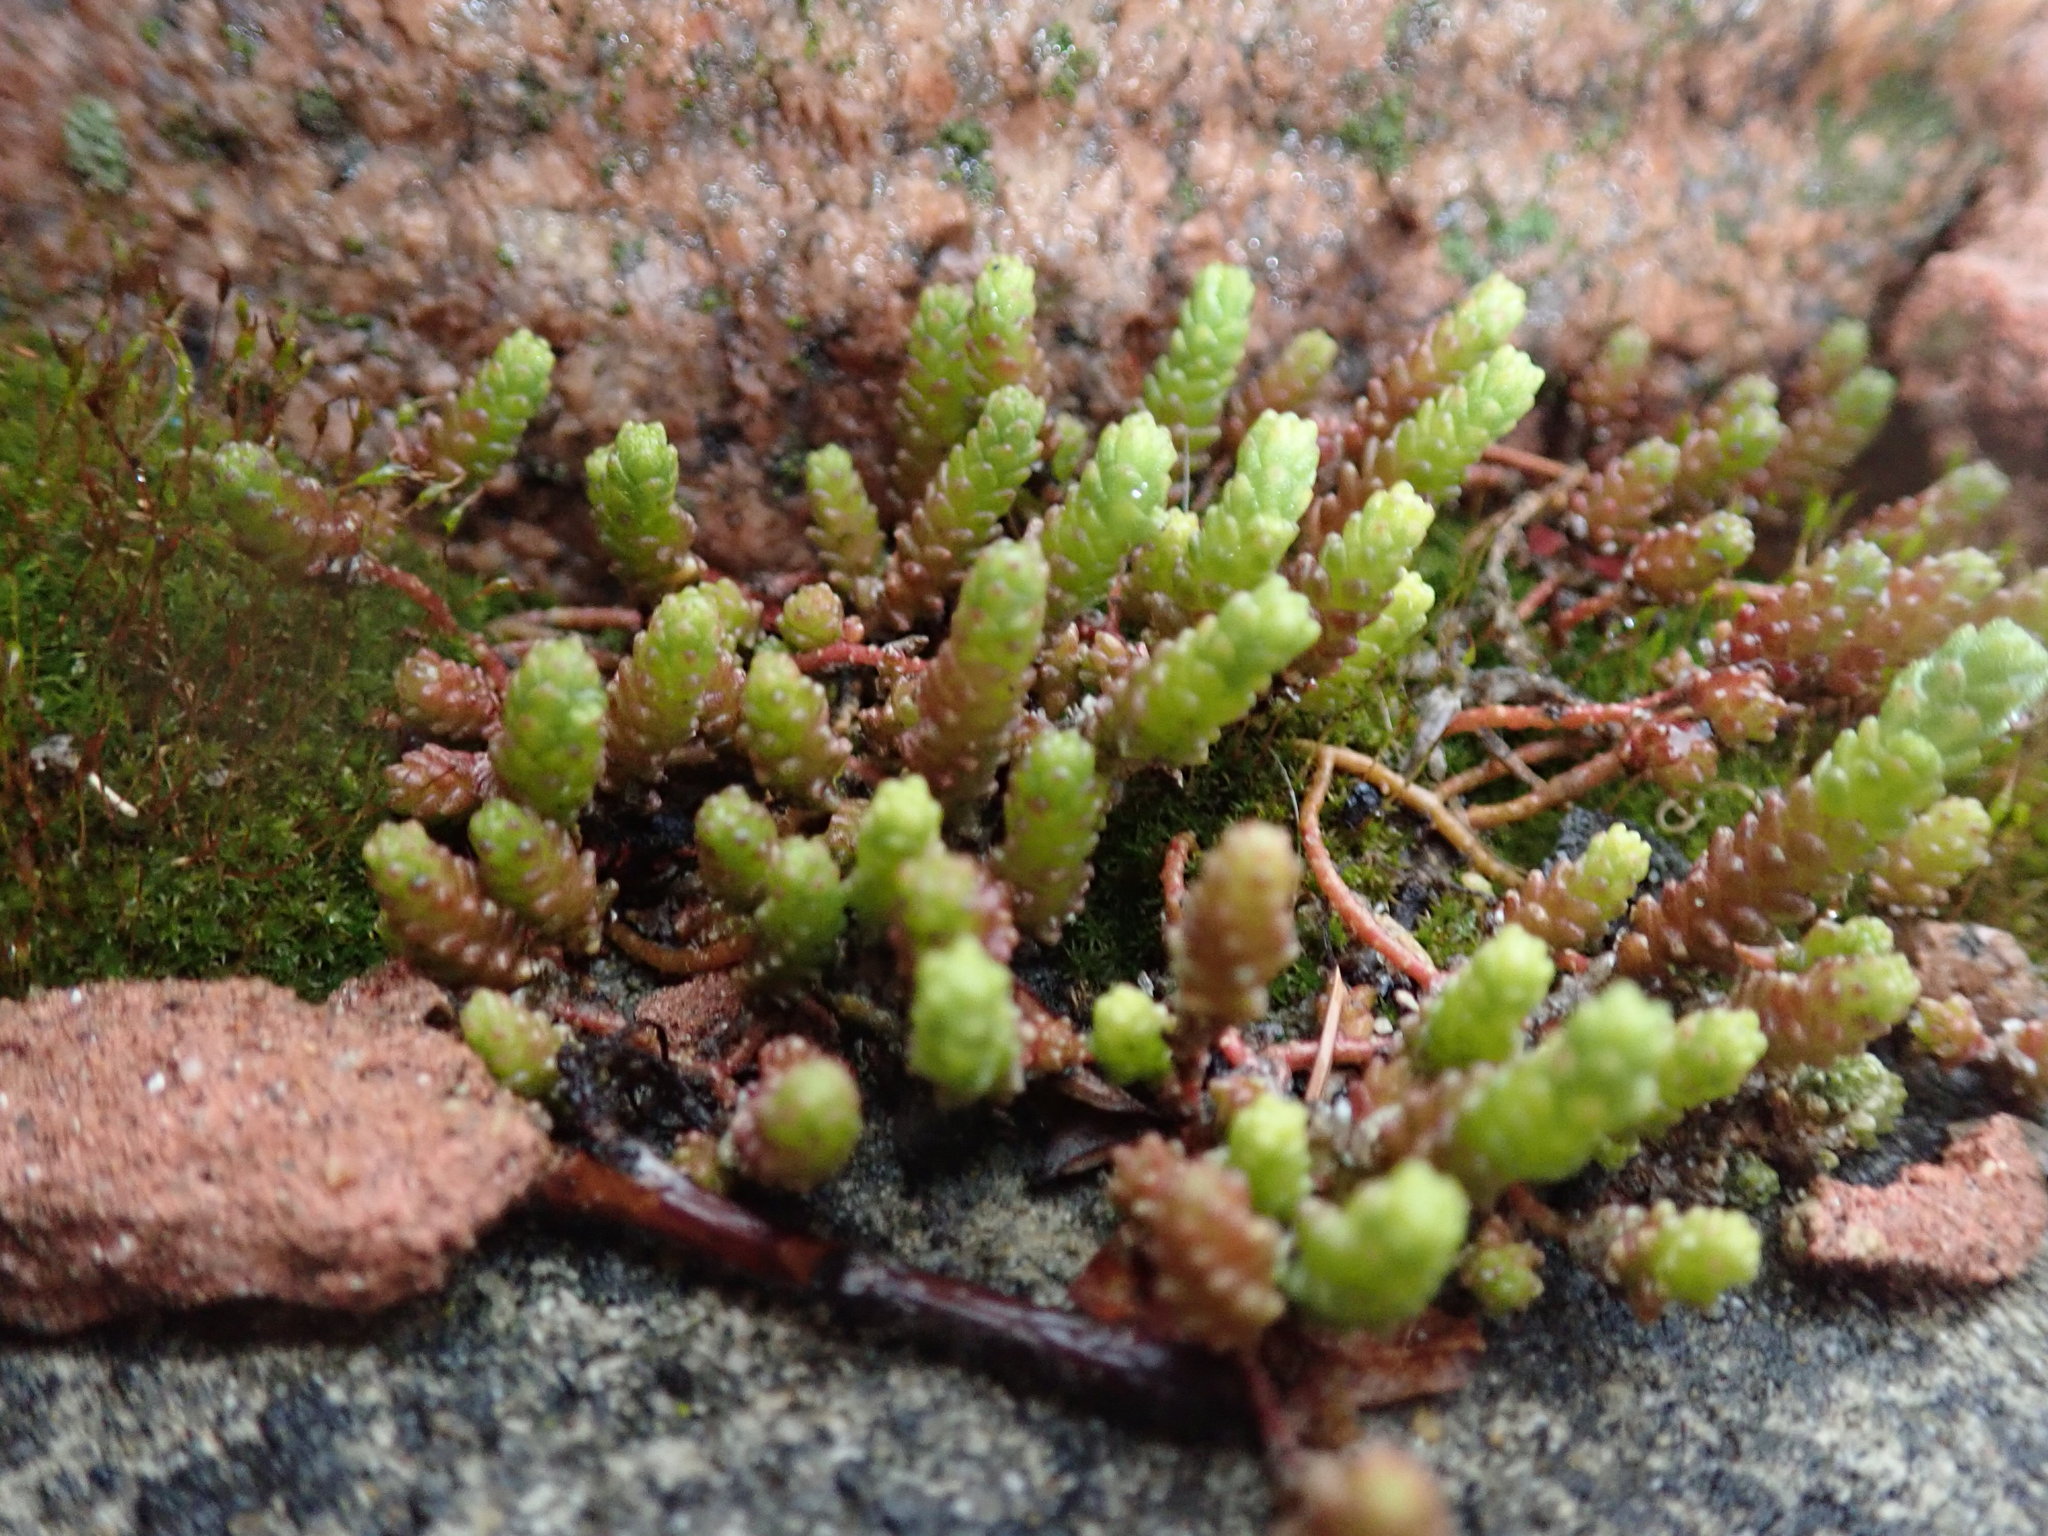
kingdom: Plantae
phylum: Tracheophyta
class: Magnoliopsida
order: Saxifragales
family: Crassulaceae
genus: Sedum
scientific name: Sedum acre
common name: Biting stonecrop
